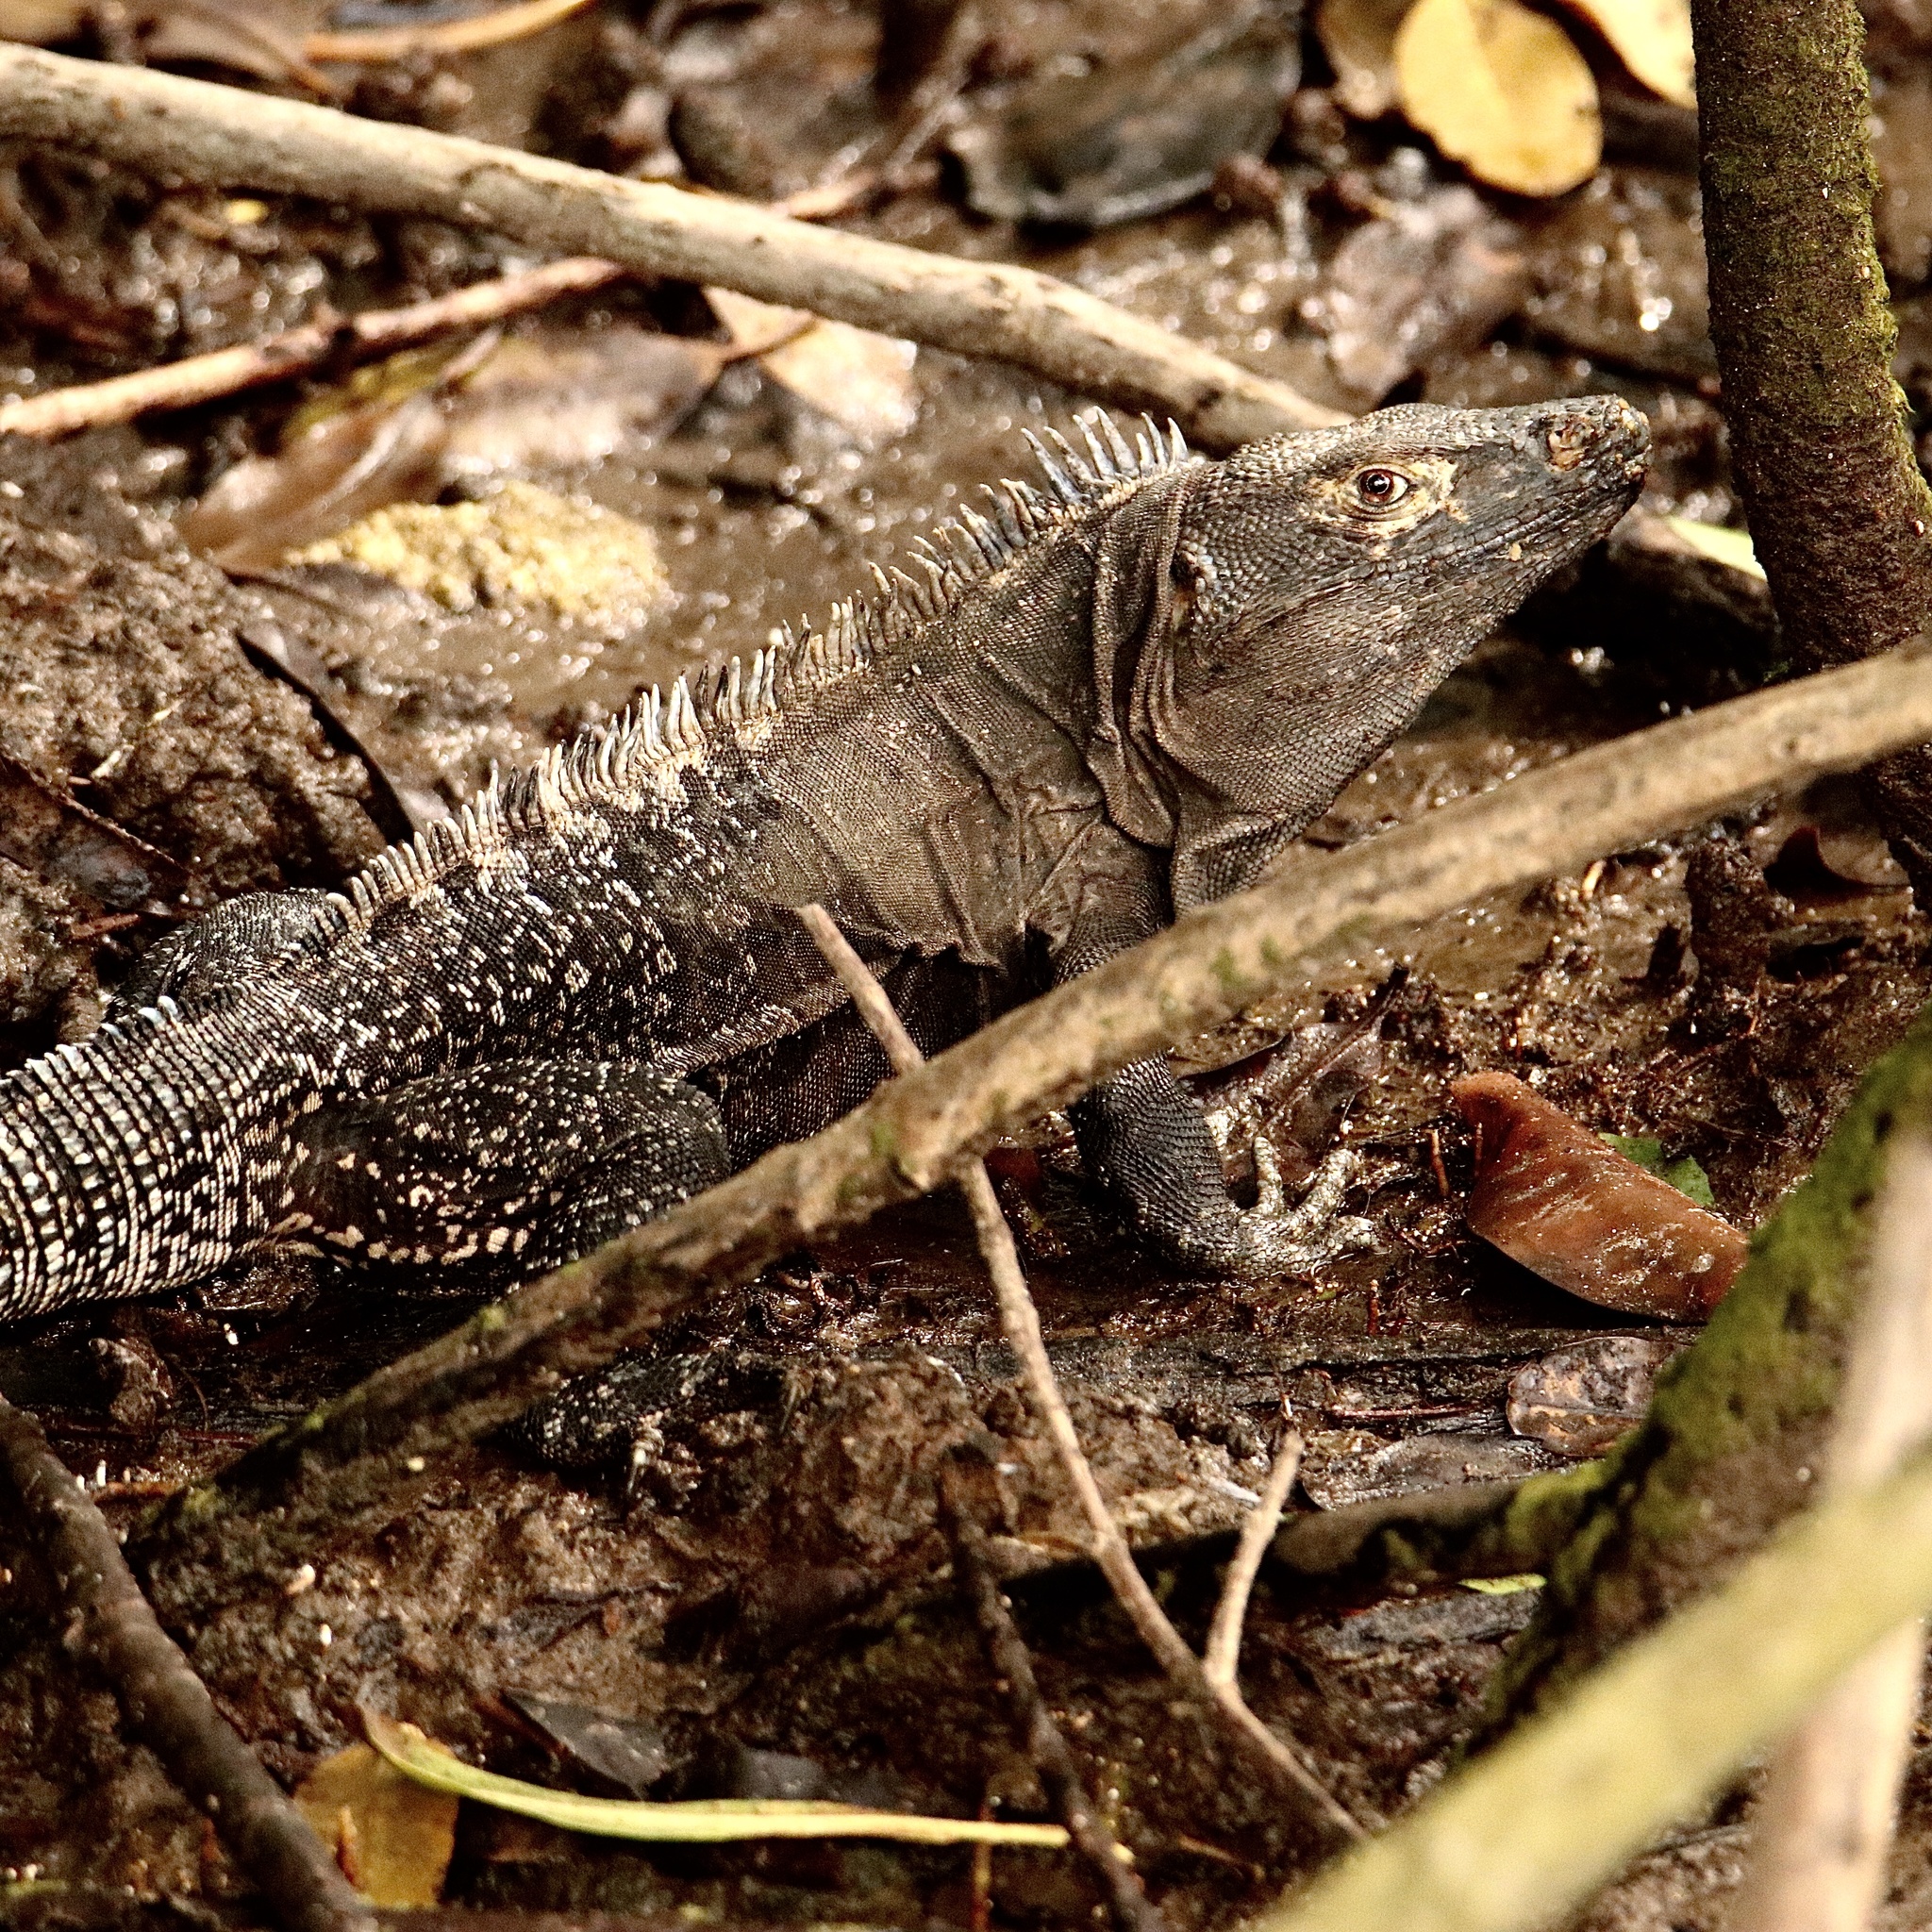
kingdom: Animalia
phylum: Chordata
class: Squamata
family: Iguanidae
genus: Ctenosaura
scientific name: Ctenosaura similis
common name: Black spiny-tailed iguana
